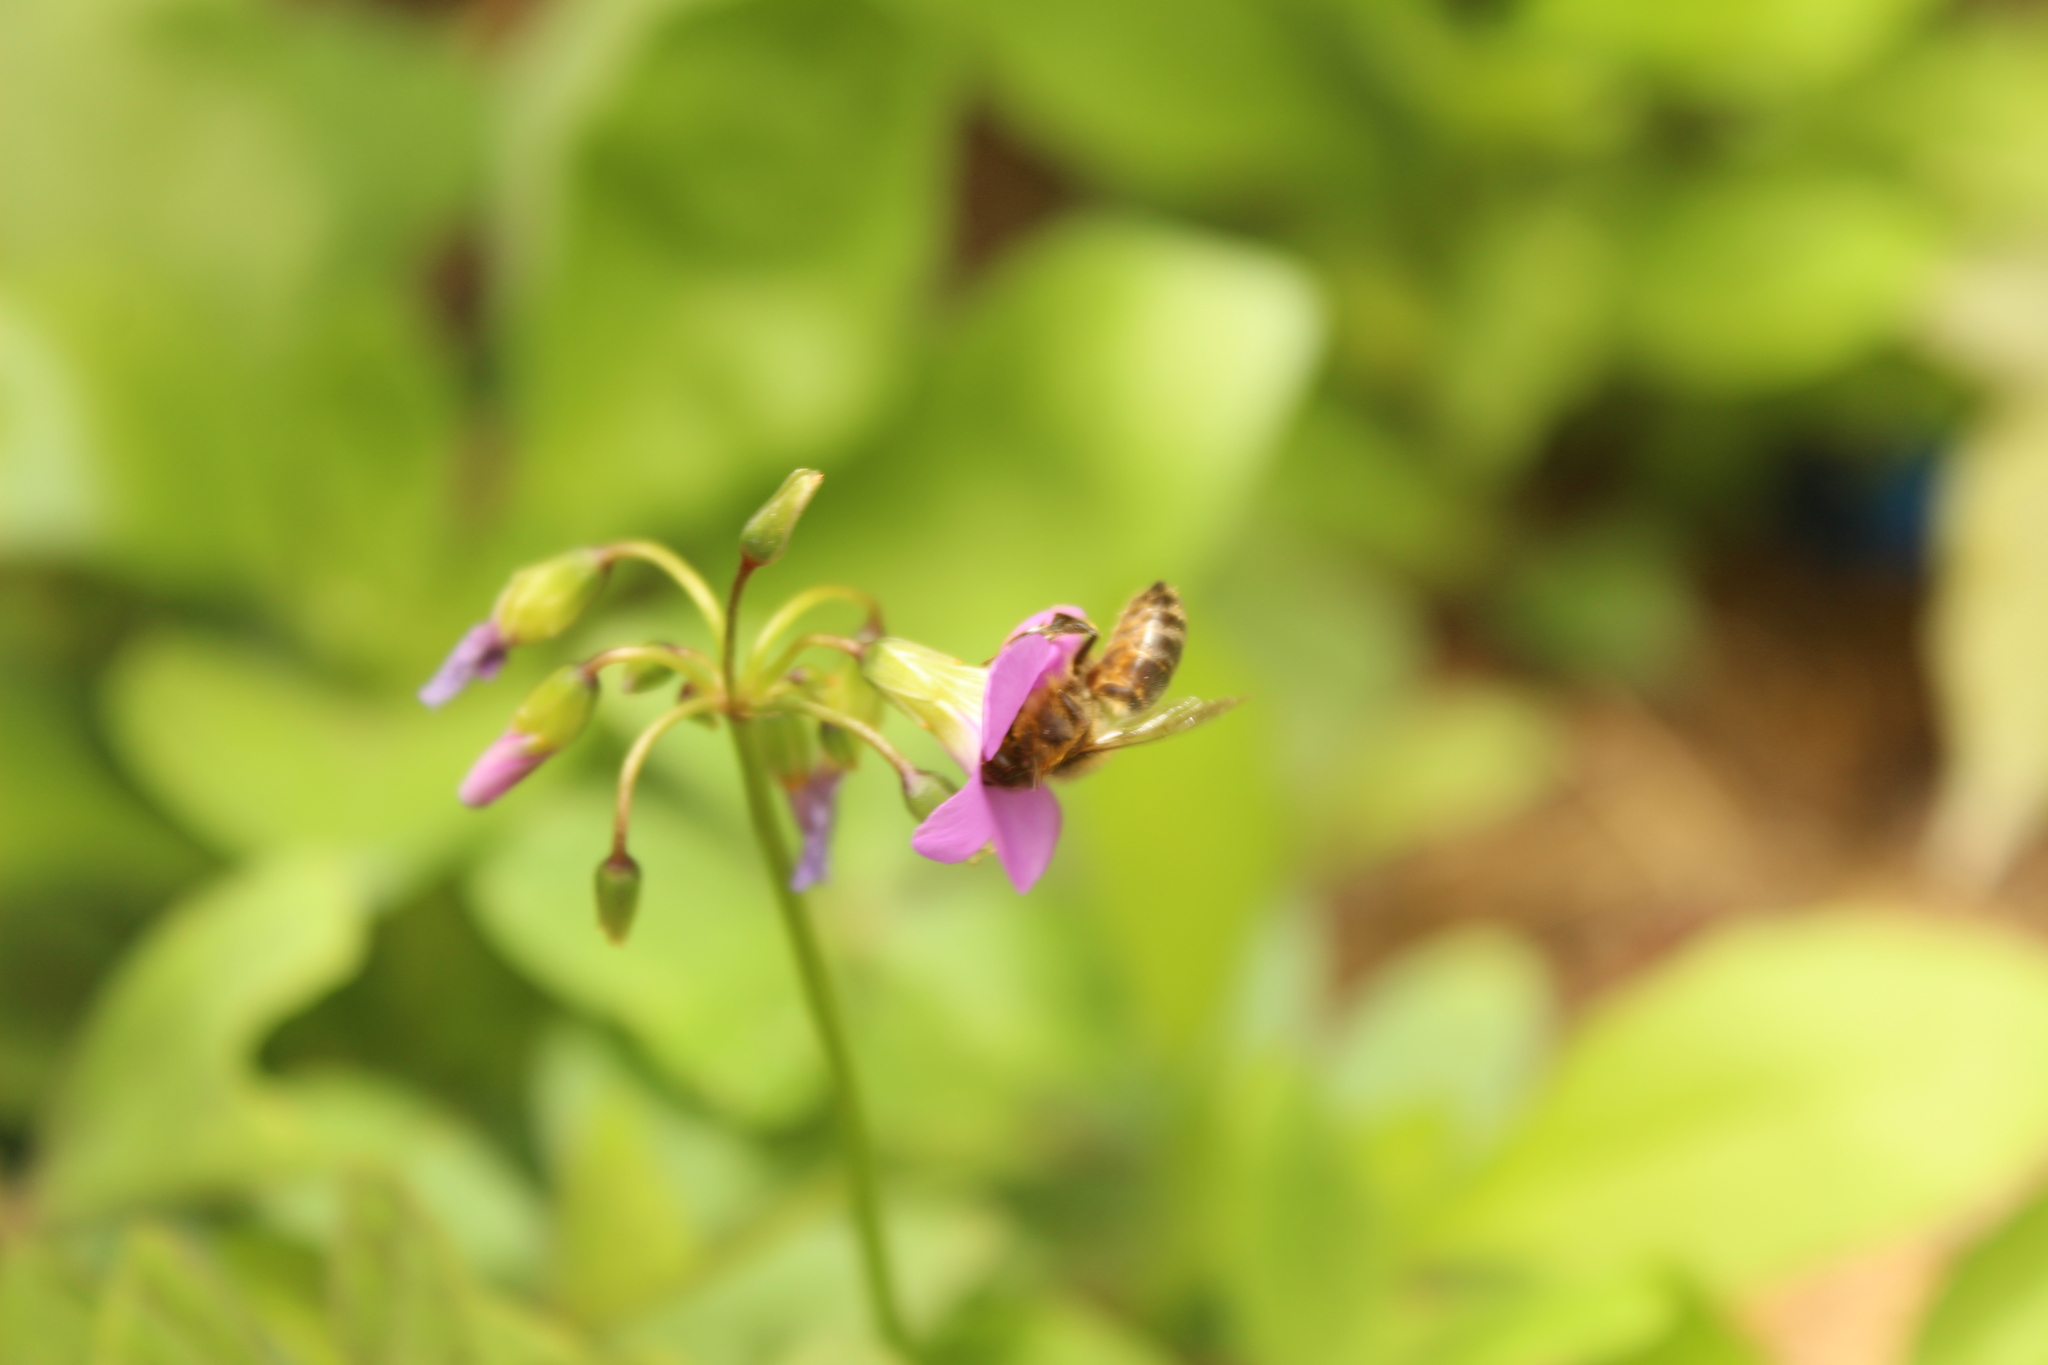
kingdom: Animalia
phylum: Arthropoda
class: Insecta
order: Hymenoptera
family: Apidae
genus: Apis
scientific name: Apis mellifera
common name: Honey bee
